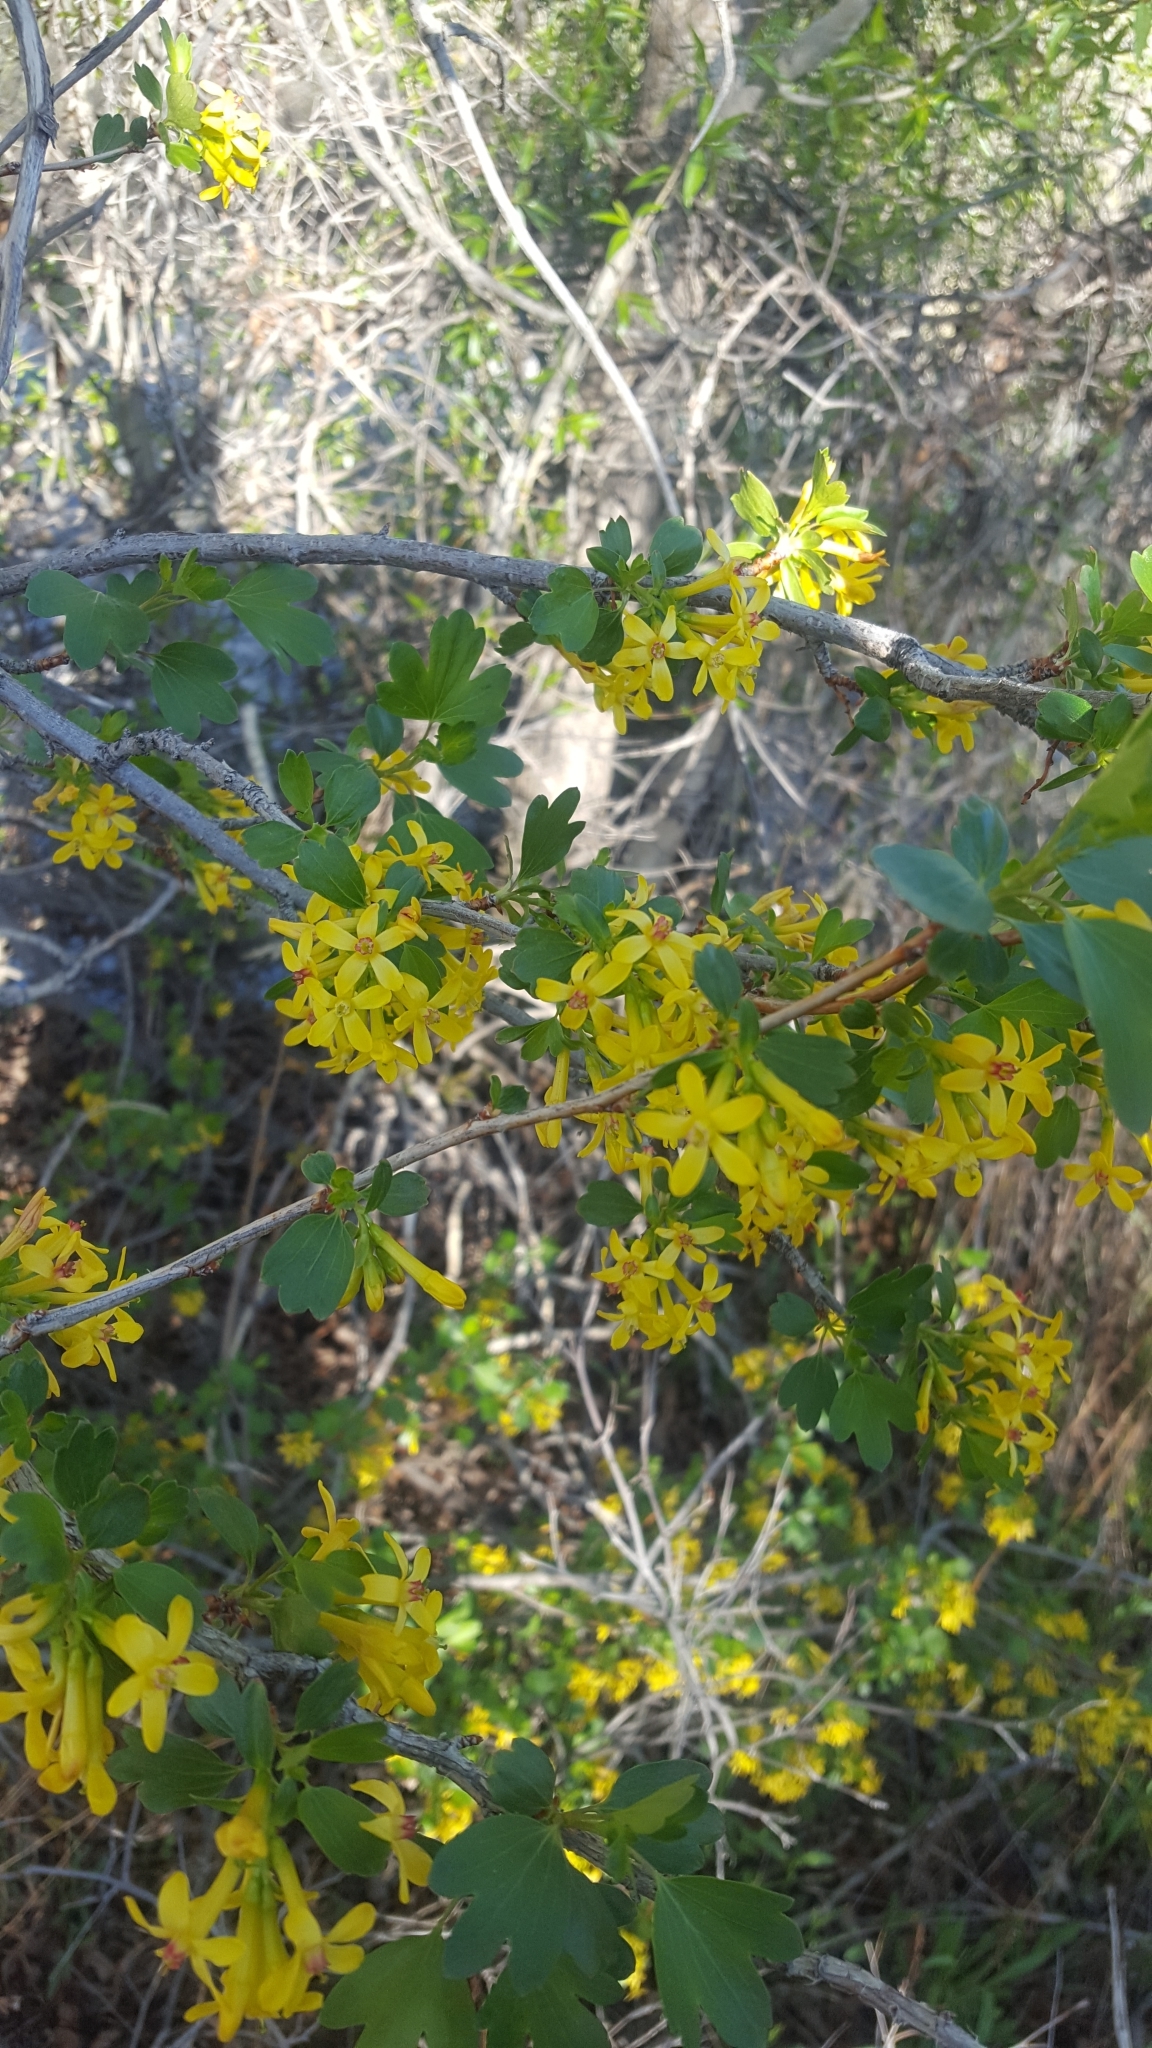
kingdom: Plantae
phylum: Tracheophyta
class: Magnoliopsida
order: Saxifragales
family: Grossulariaceae
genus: Ribes
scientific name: Ribes aureum
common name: Golden currant
